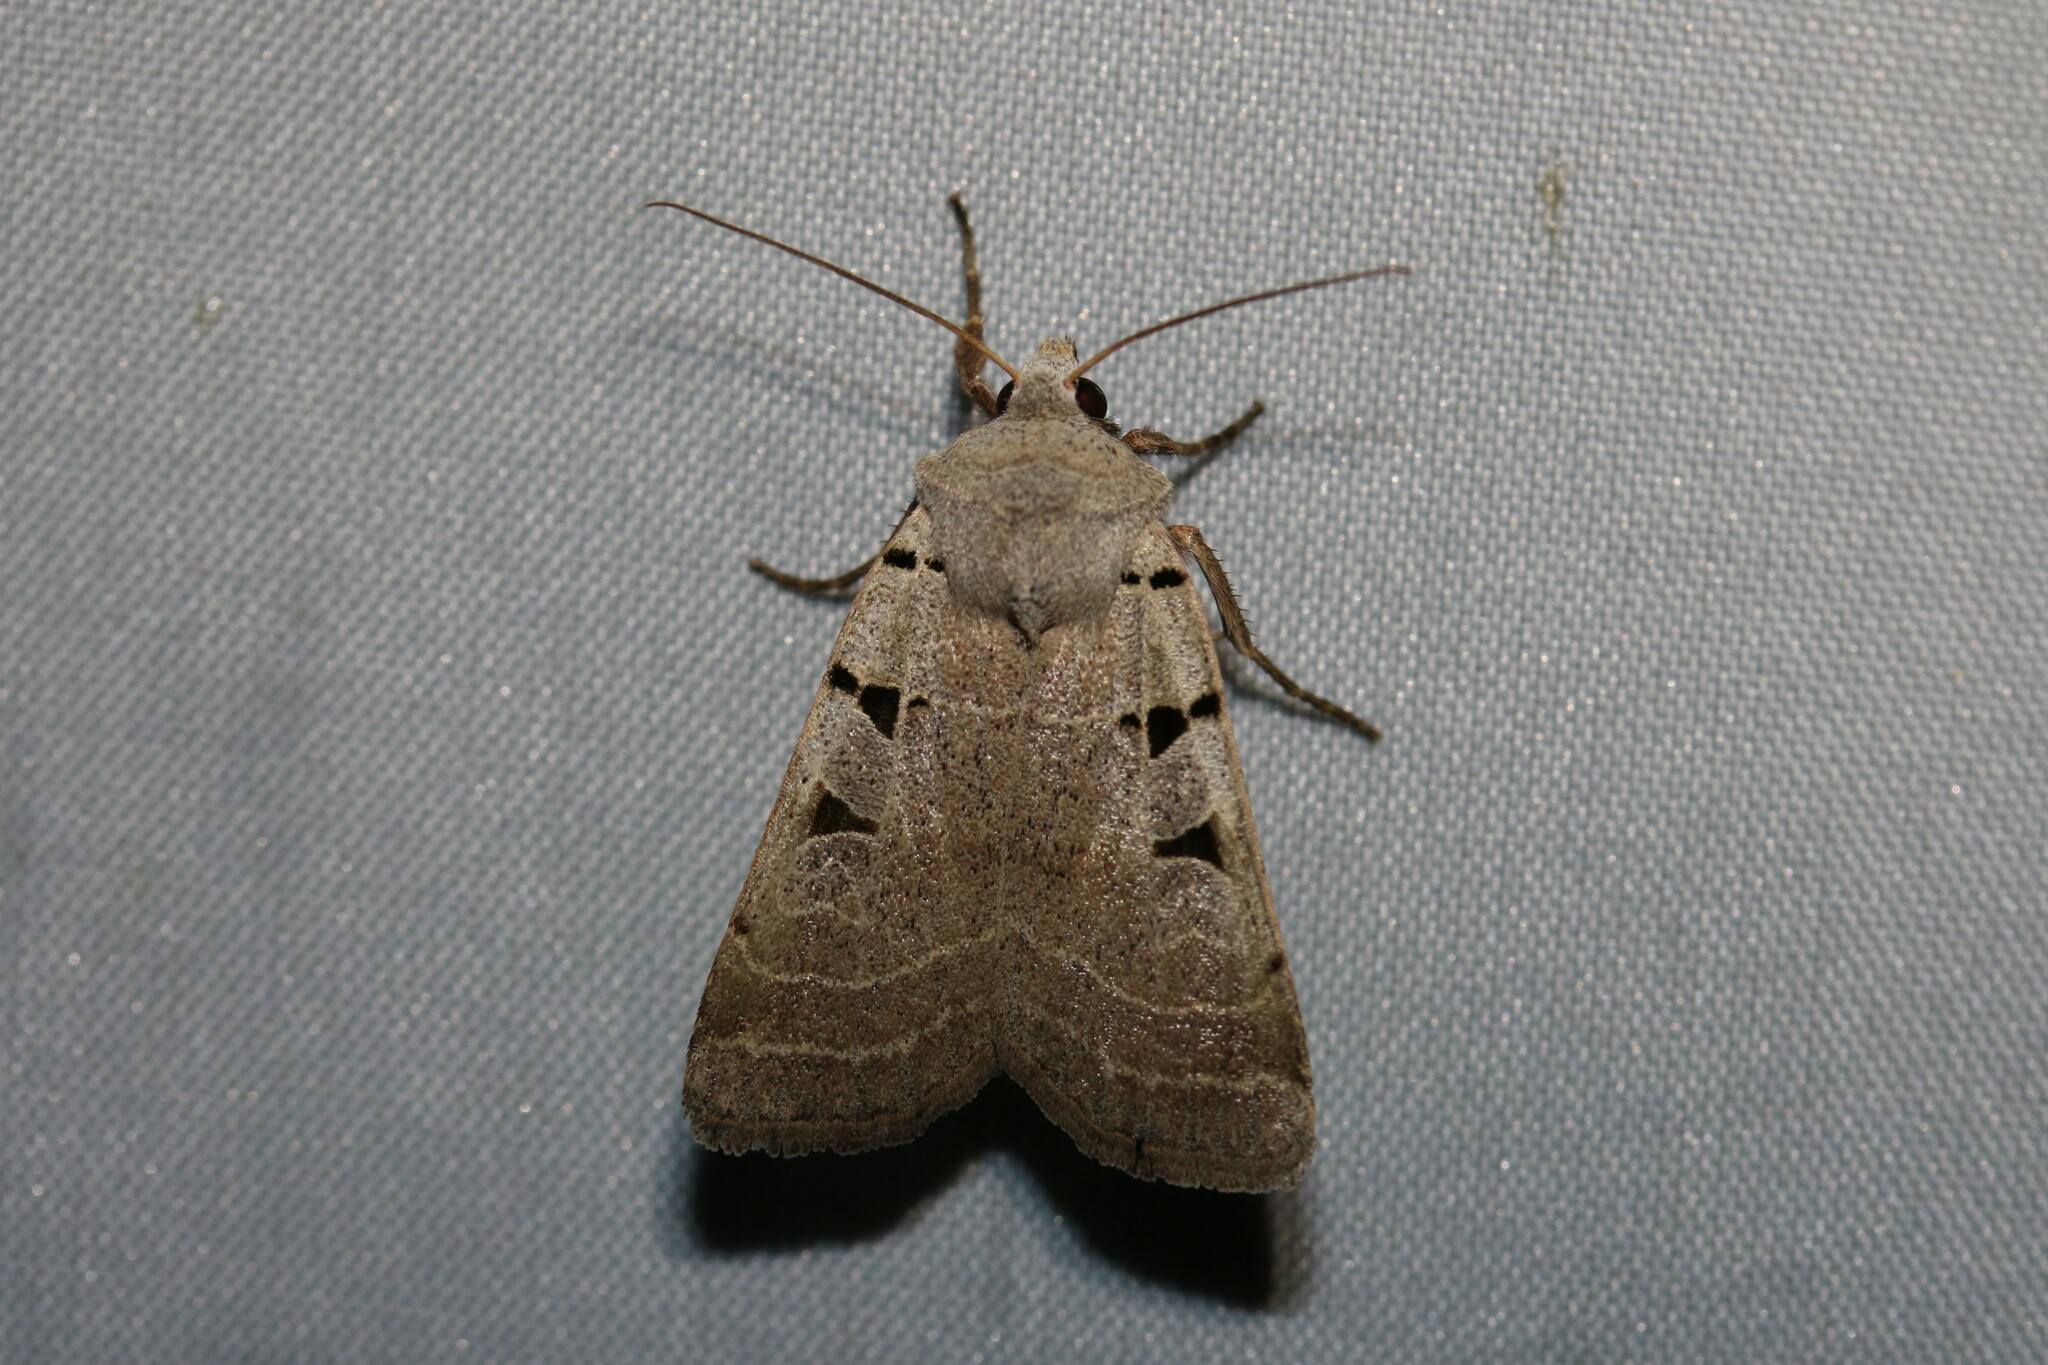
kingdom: Animalia
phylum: Arthropoda
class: Insecta
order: Lepidoptera
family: Noctuidae
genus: Eugnorisma
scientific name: Eugnorisma glareosa
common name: Autumnal rustic
